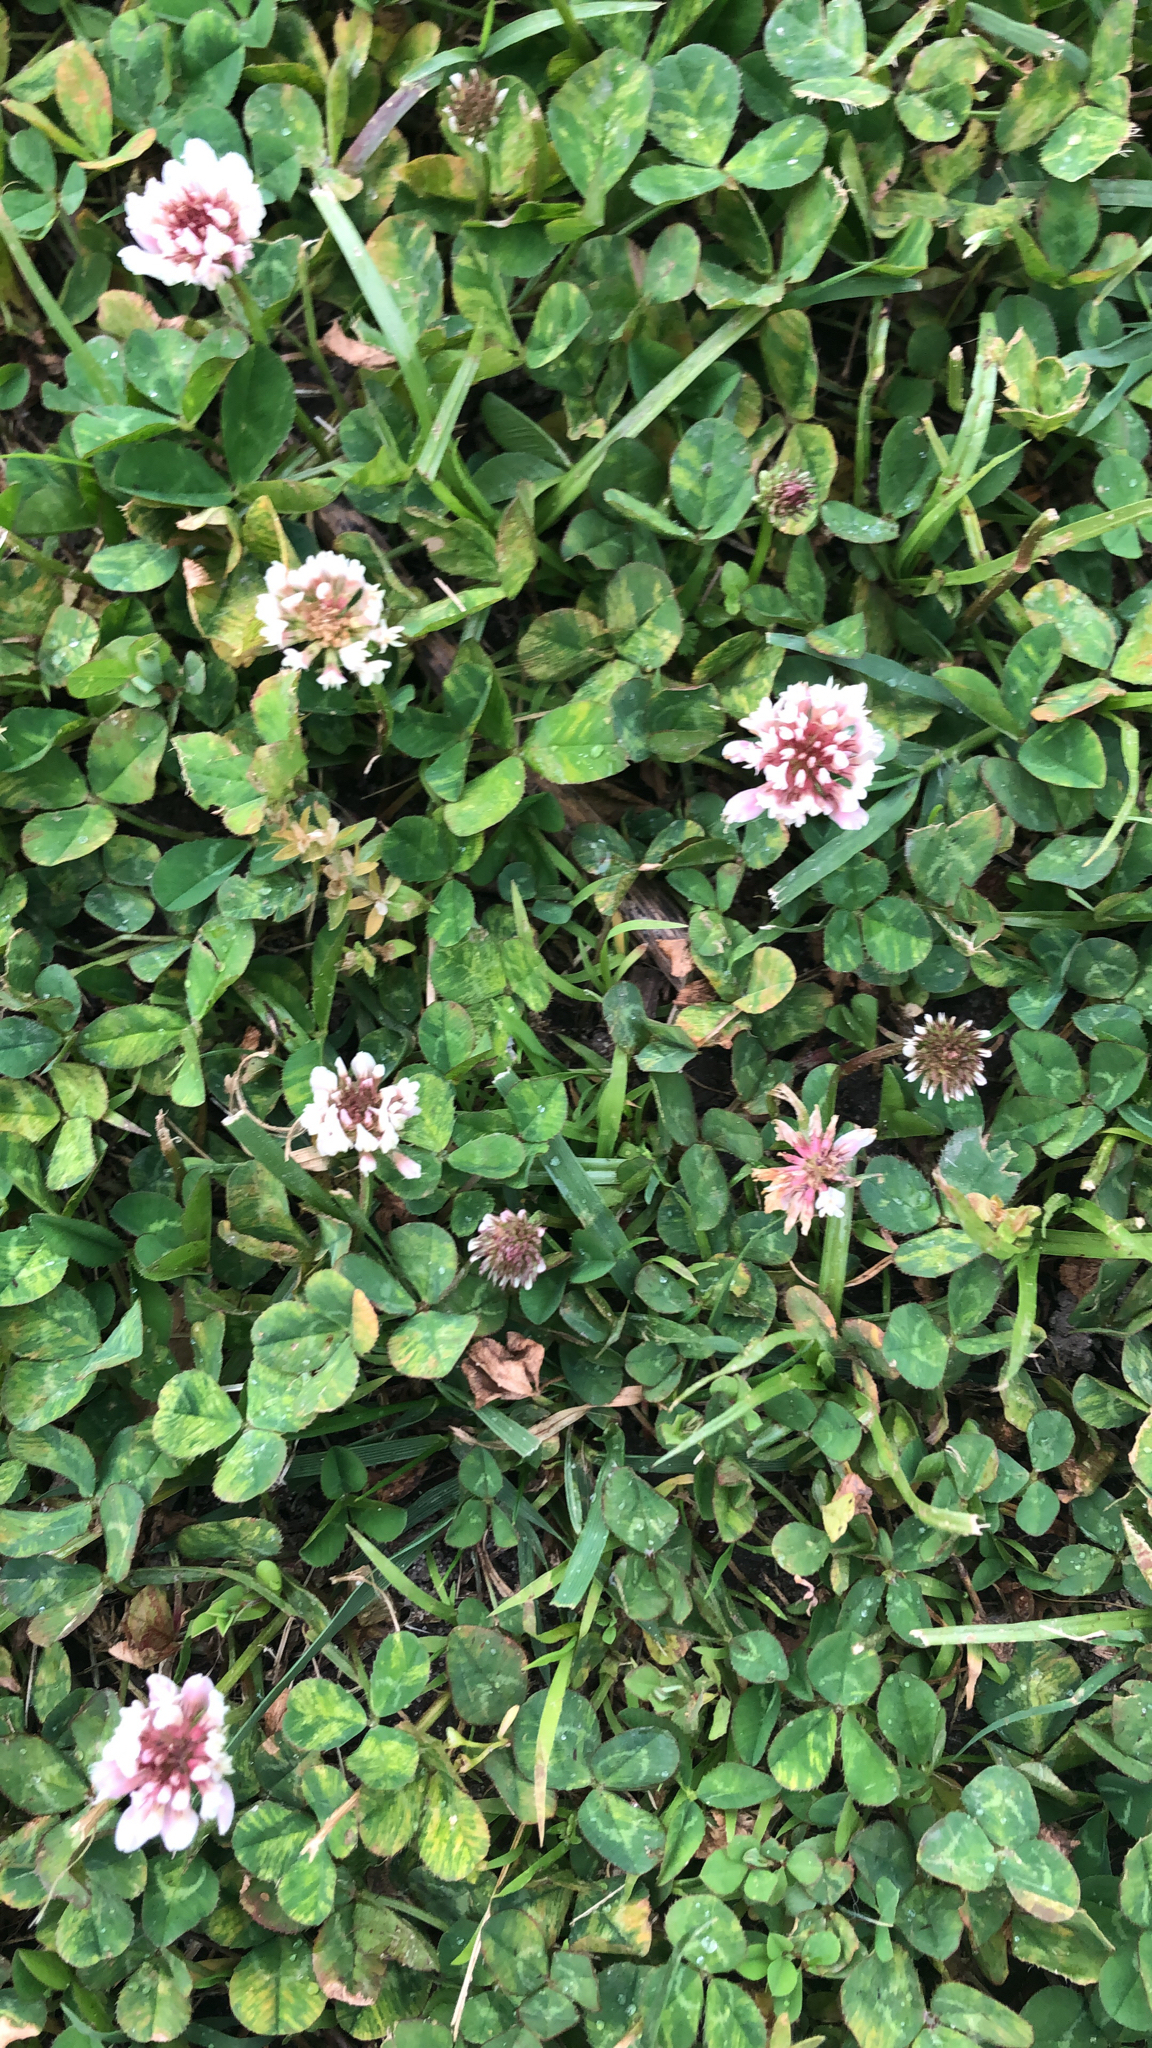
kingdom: Plantae
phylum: Tracheophyta
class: Magnoliopsida
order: Fabales
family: Fabaceae
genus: Trifolium
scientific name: Trifolium repens
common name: White clover
